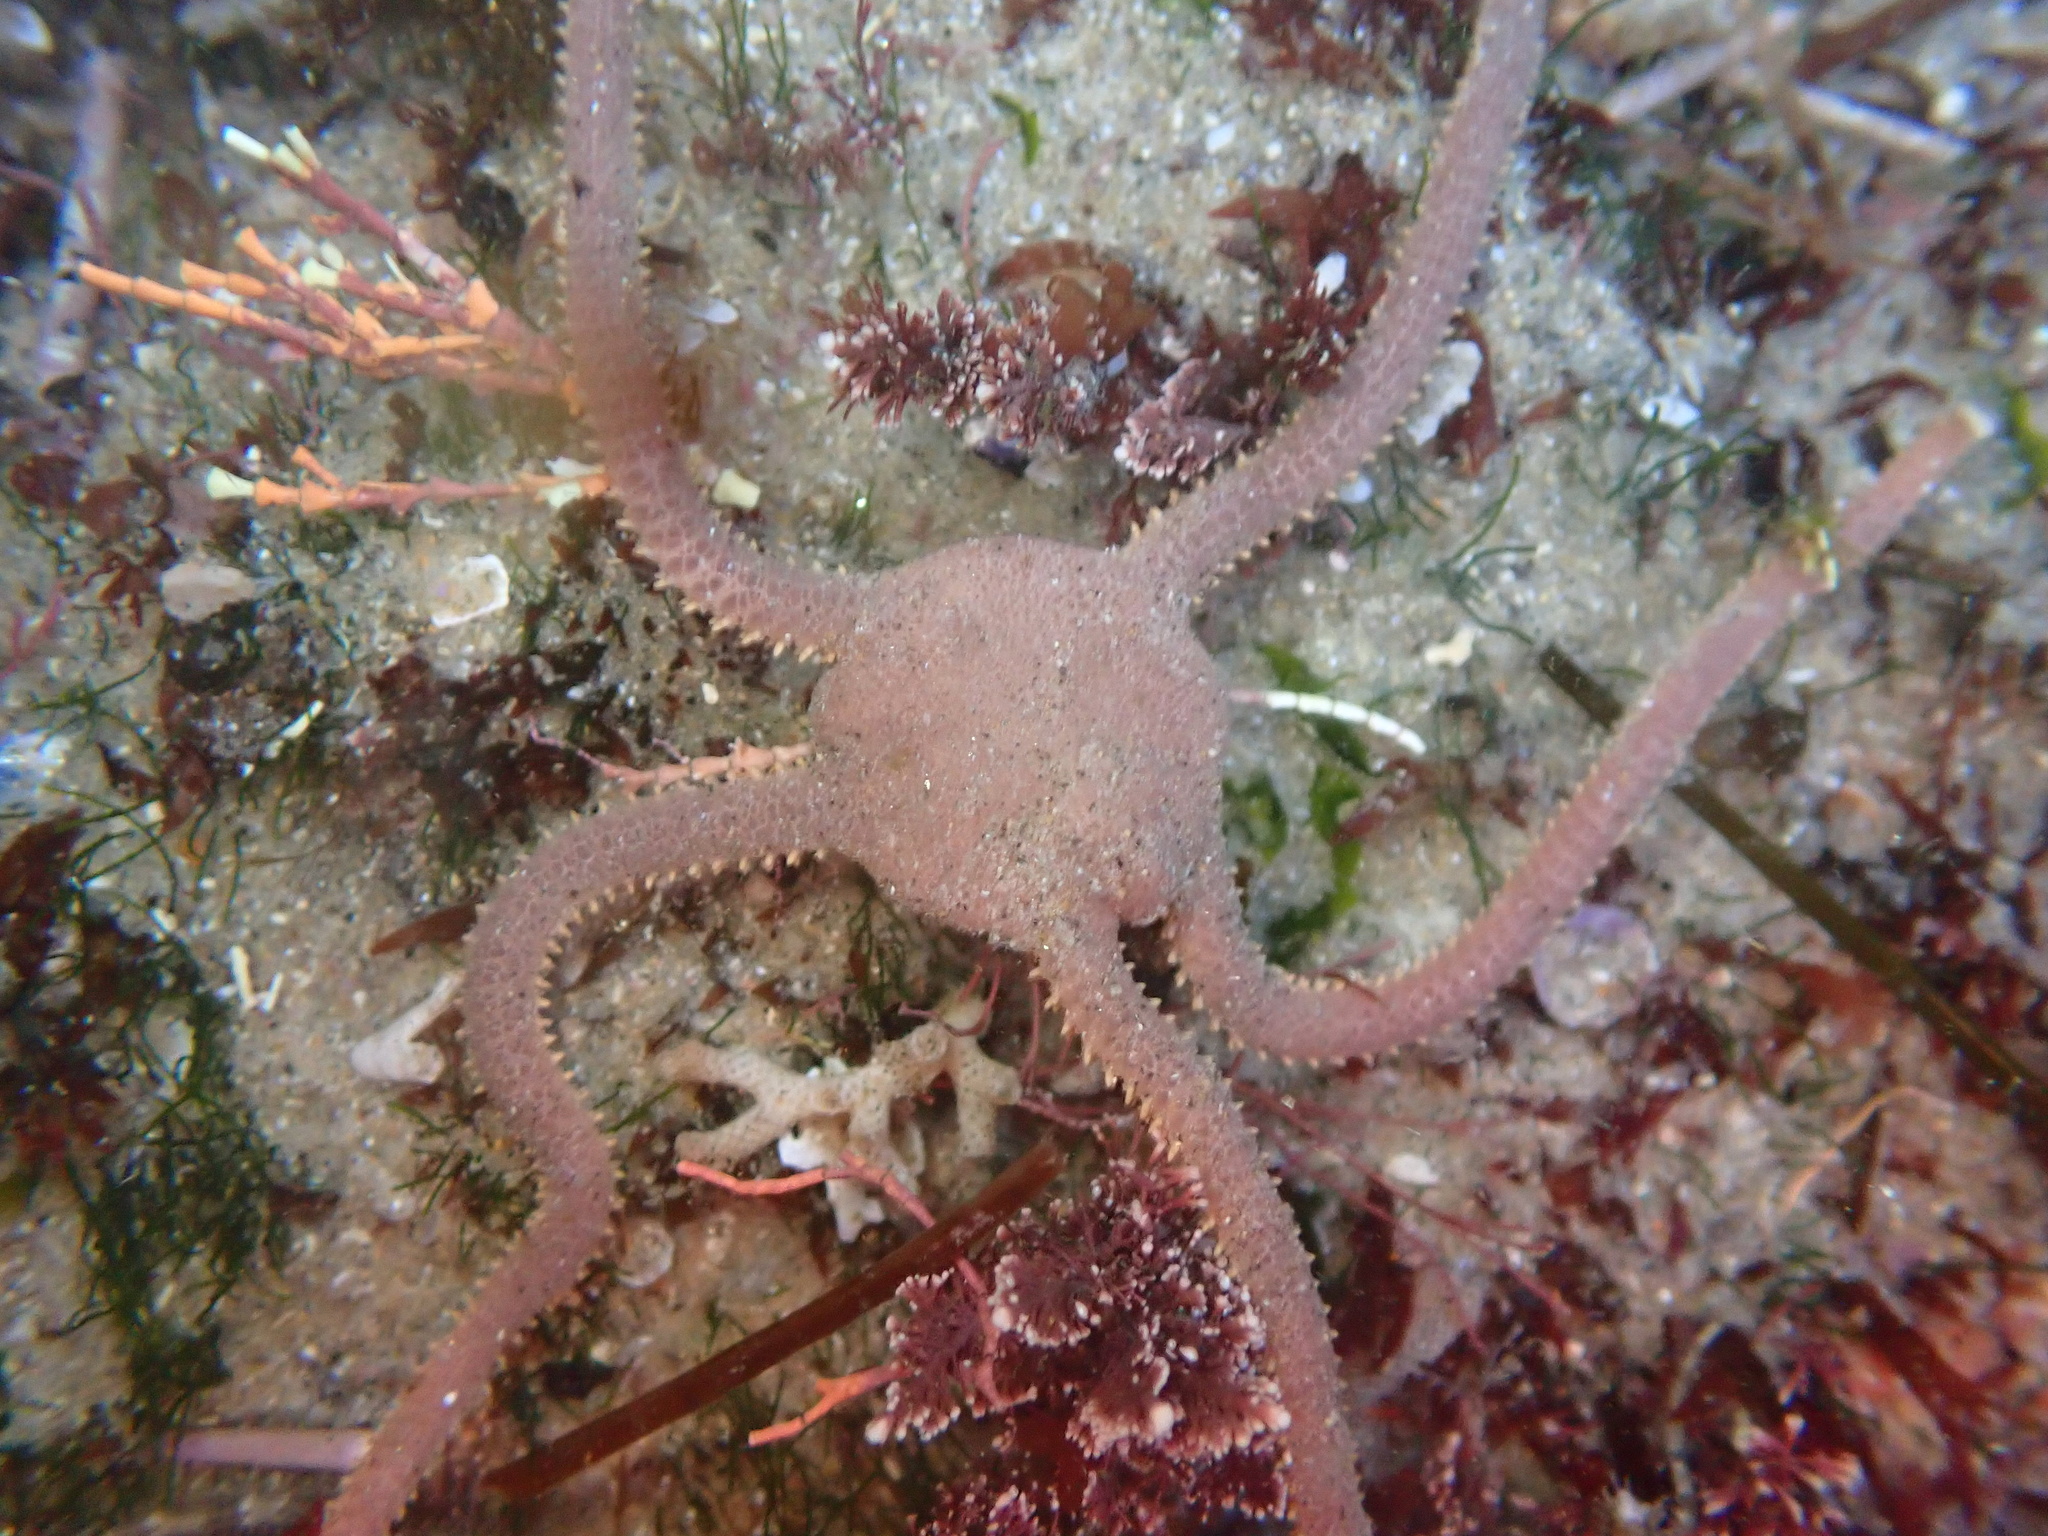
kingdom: Animalia
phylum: Echinodermata
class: Ophiuroidea
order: Amphilepidida
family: Hemieuryalidae
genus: Ophioplocus
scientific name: Ophioplocus esmarki
